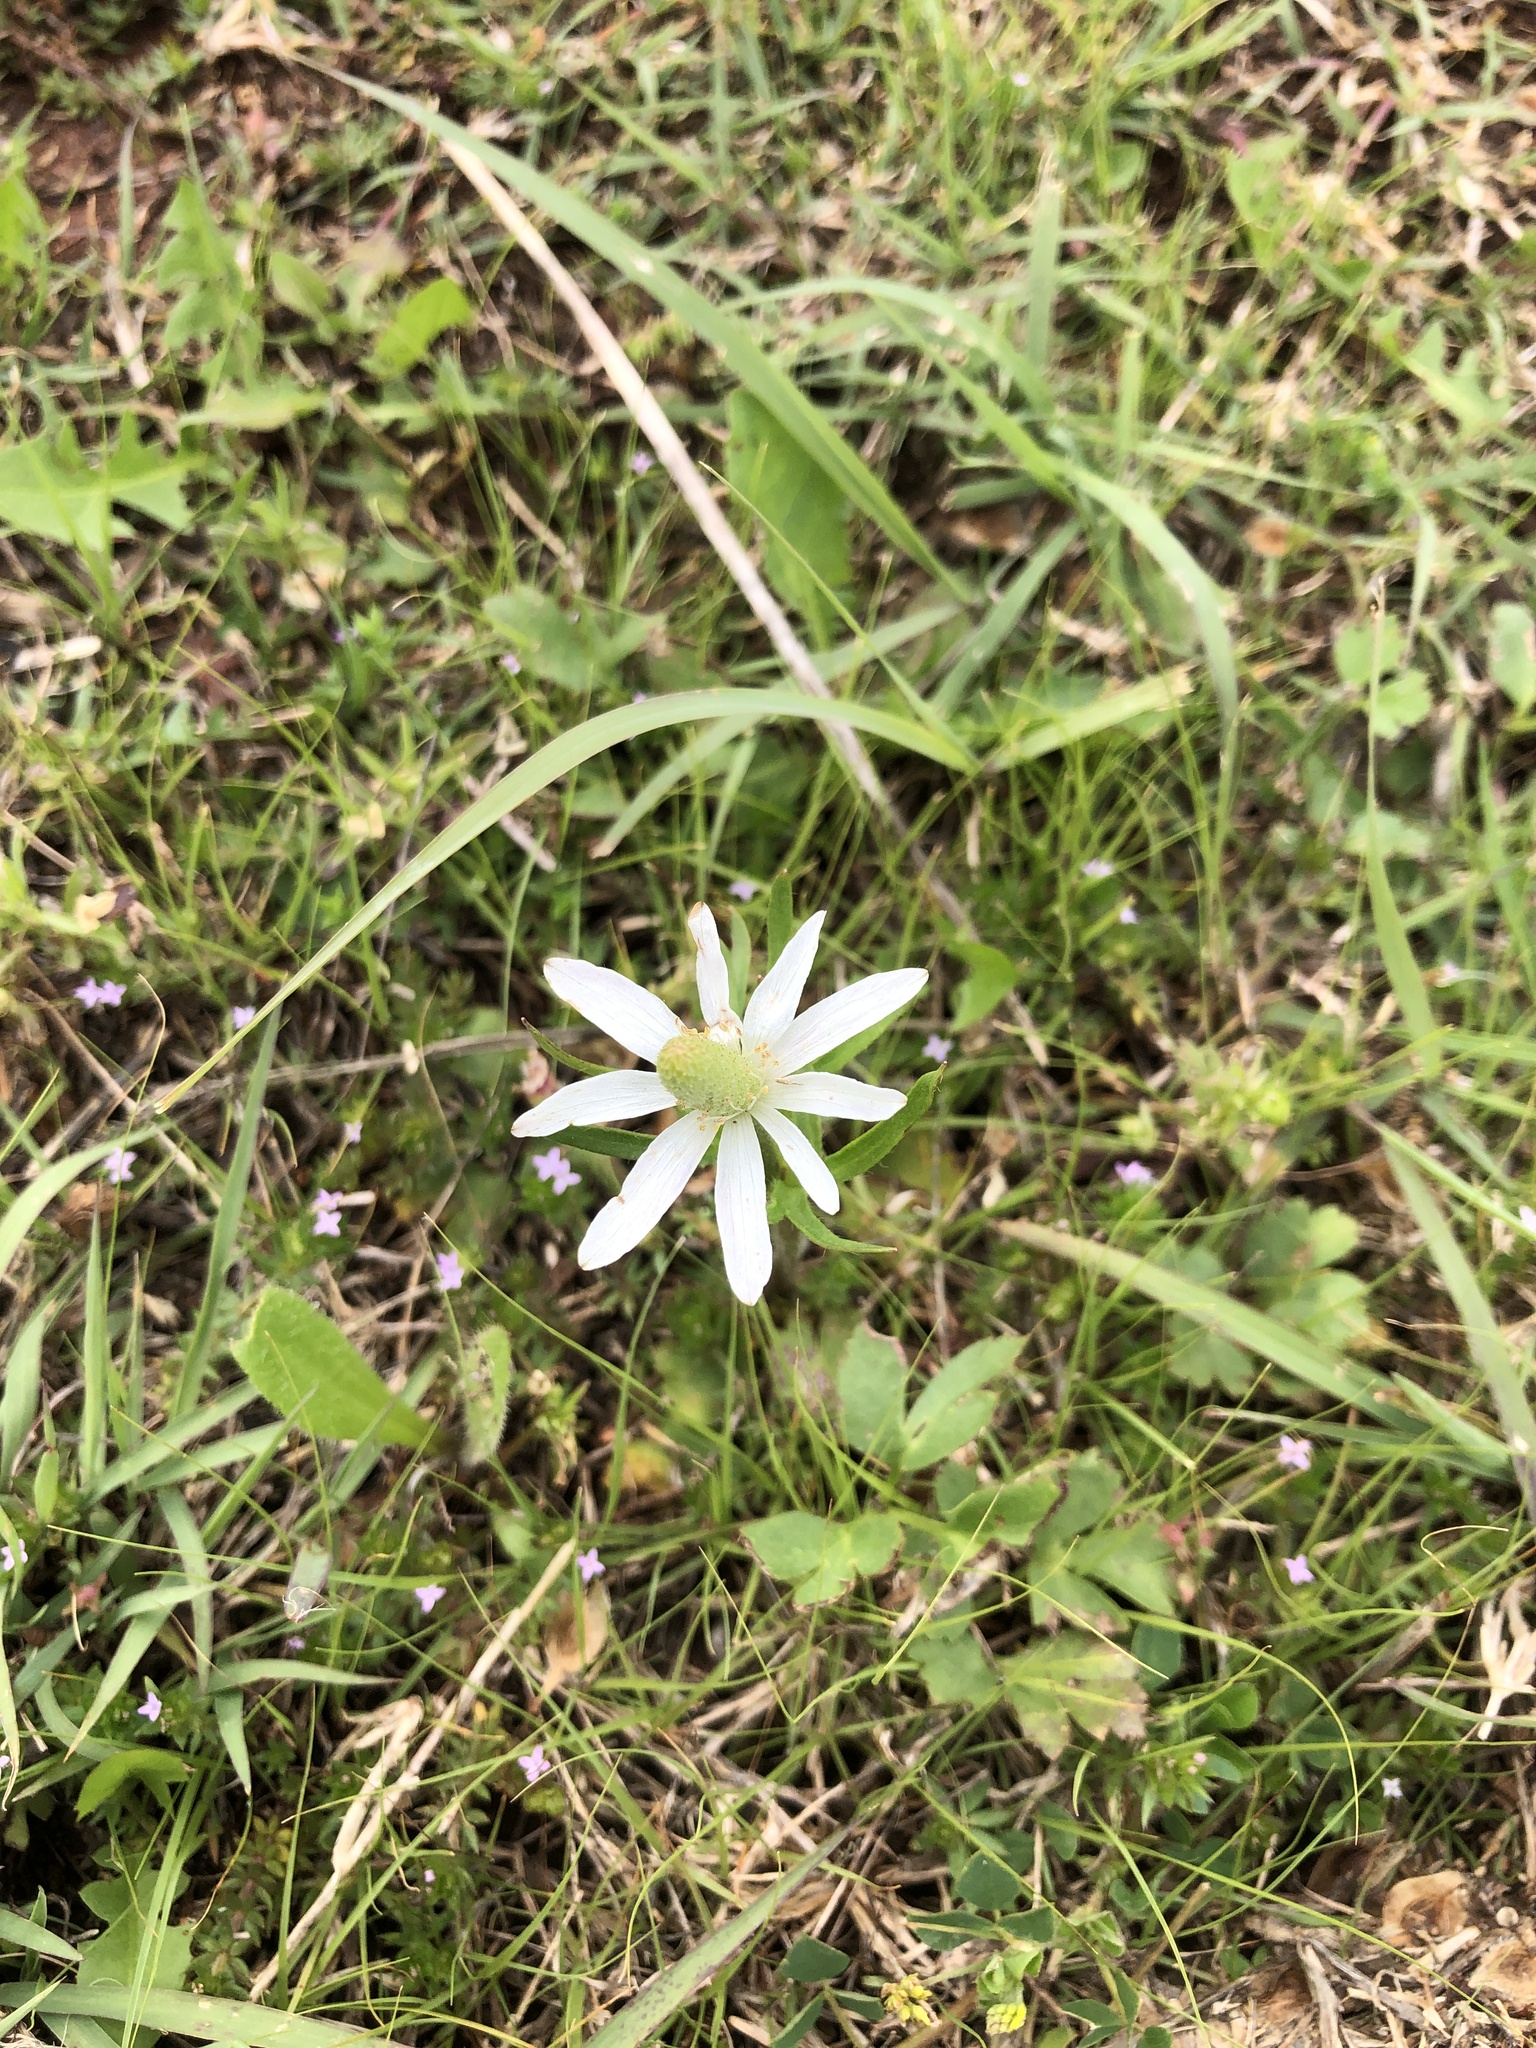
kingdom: Plantae
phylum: Tracheophyta
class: Magnoliopsida
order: Ranunculales
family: Ranunculaceae
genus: Anemone
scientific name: Anemone berlandieri
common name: Ten-petal anemone
